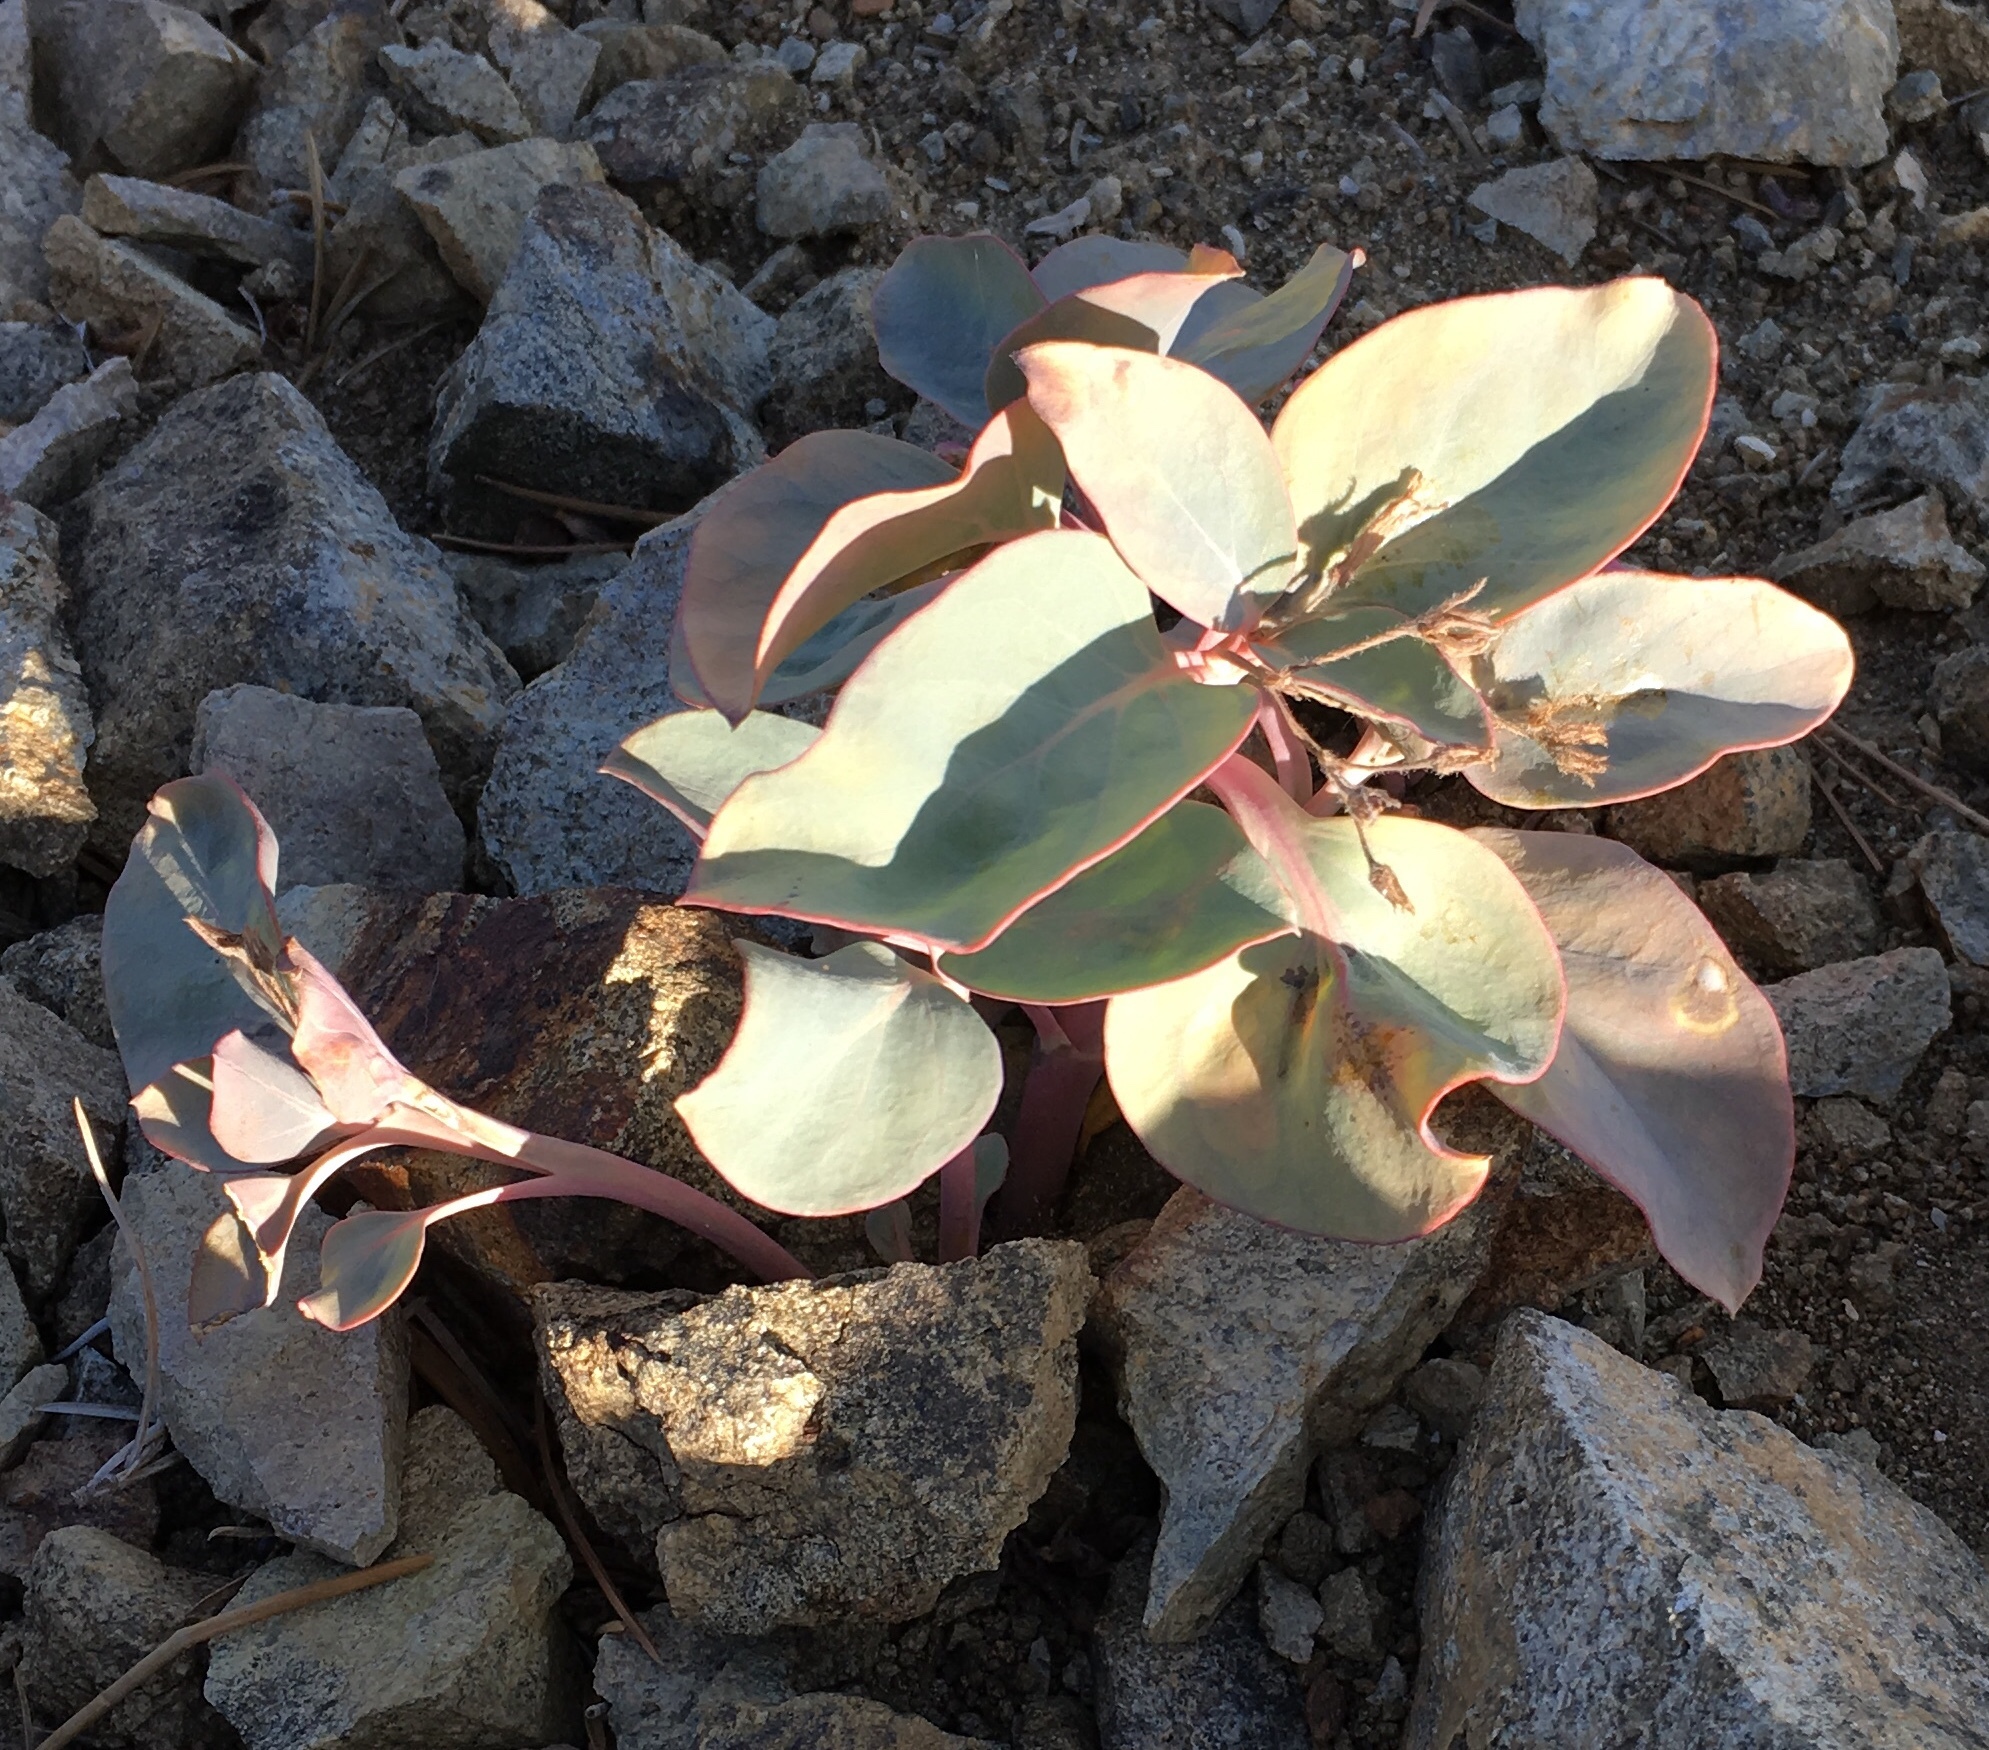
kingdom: Plantae
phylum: Tracheophyta
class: Magnoliopsida
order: Gentianales
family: Apocynaceae
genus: Cycladenia
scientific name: Cycladenia humilis
